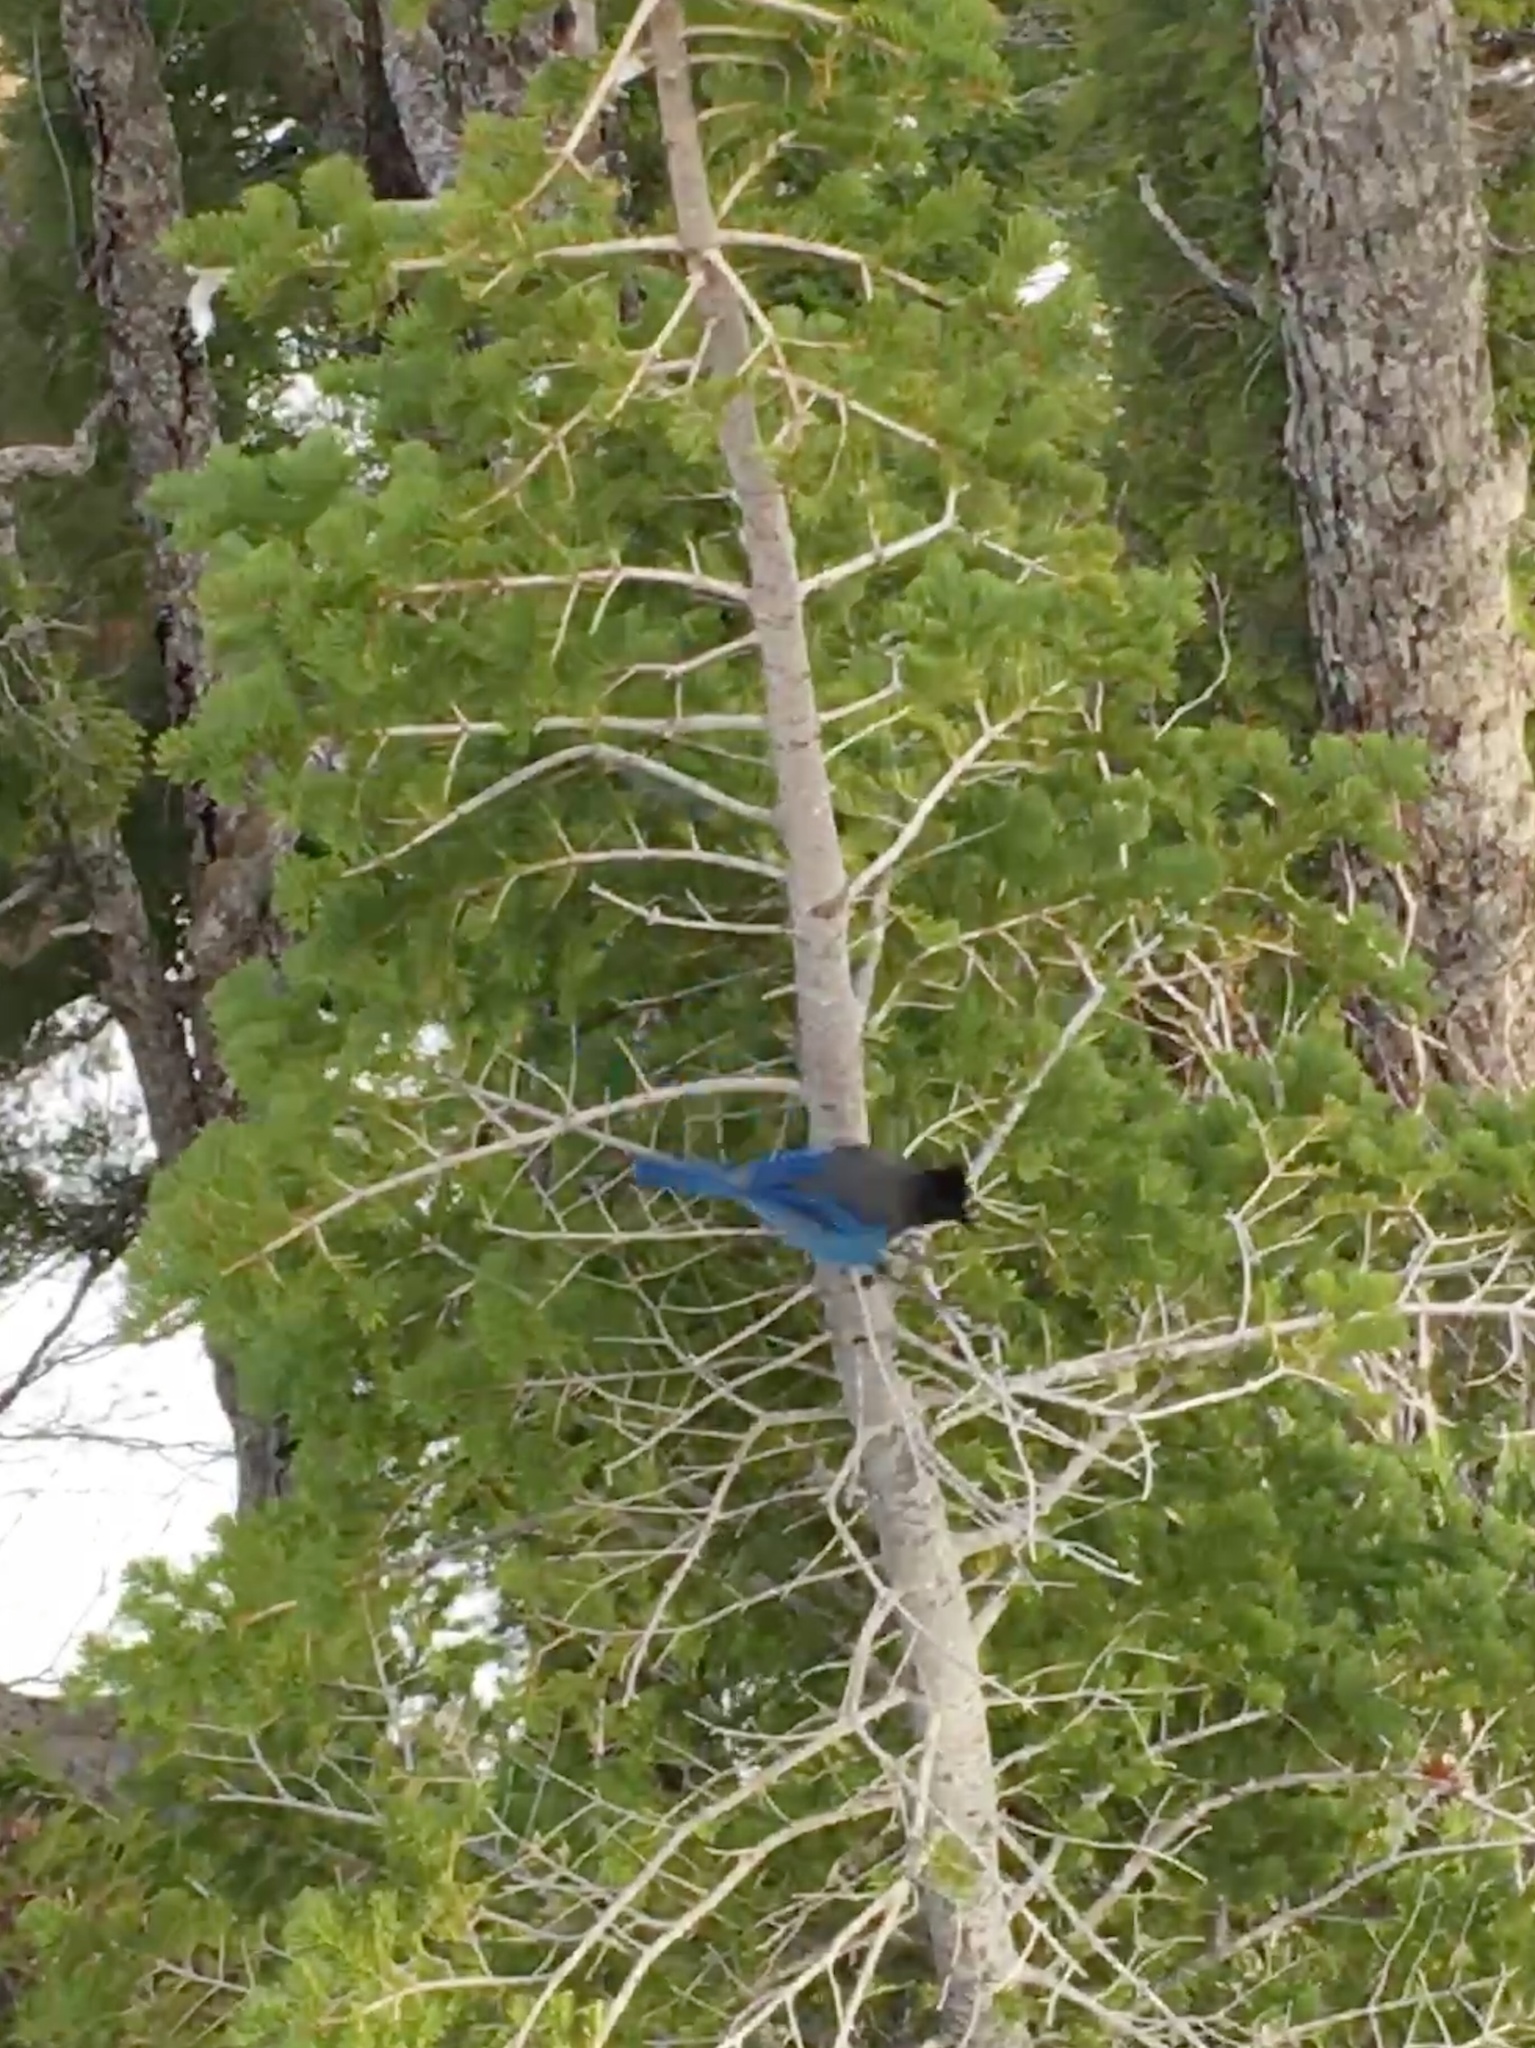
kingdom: Animalia
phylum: Chordata
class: Aves
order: Passeriformes
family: Corvidae
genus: Cyanocitta
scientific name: Cyanocitta stelleri
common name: Steller's jay
